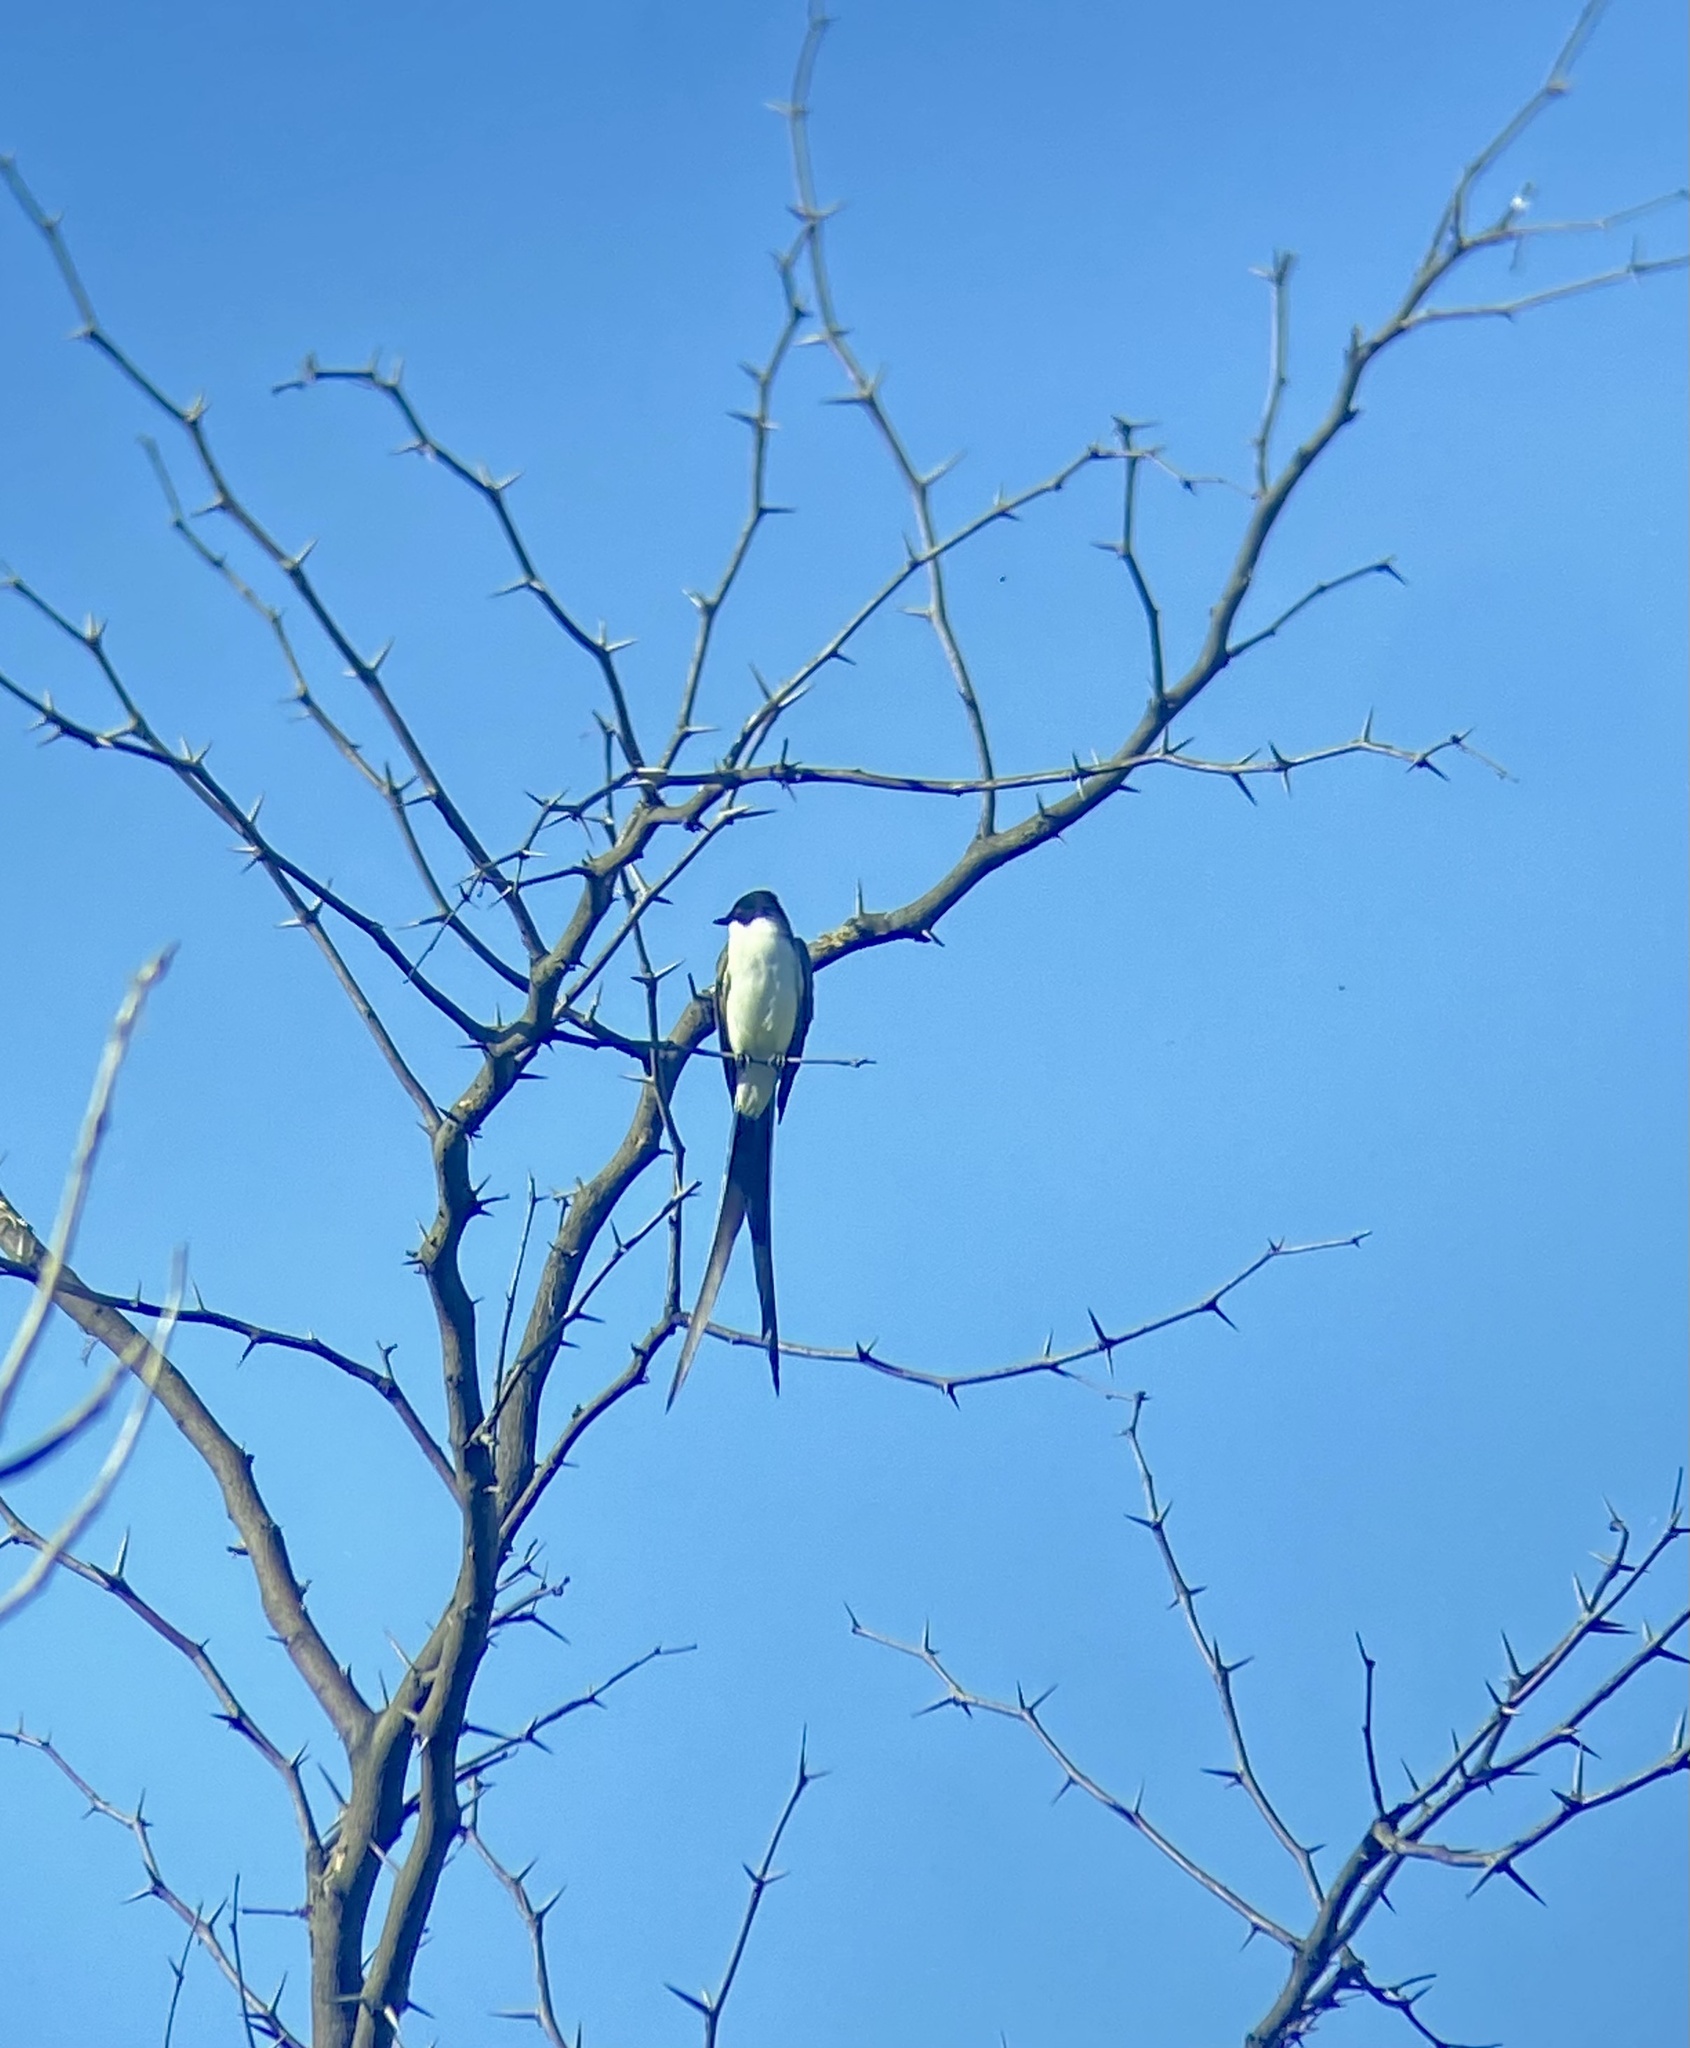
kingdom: Animalia
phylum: Chordata
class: Aves
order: Passeriformes
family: Tyrannidae
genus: Tyrannus
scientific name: Tyrannus savana
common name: Fork-tailed flycatcher
